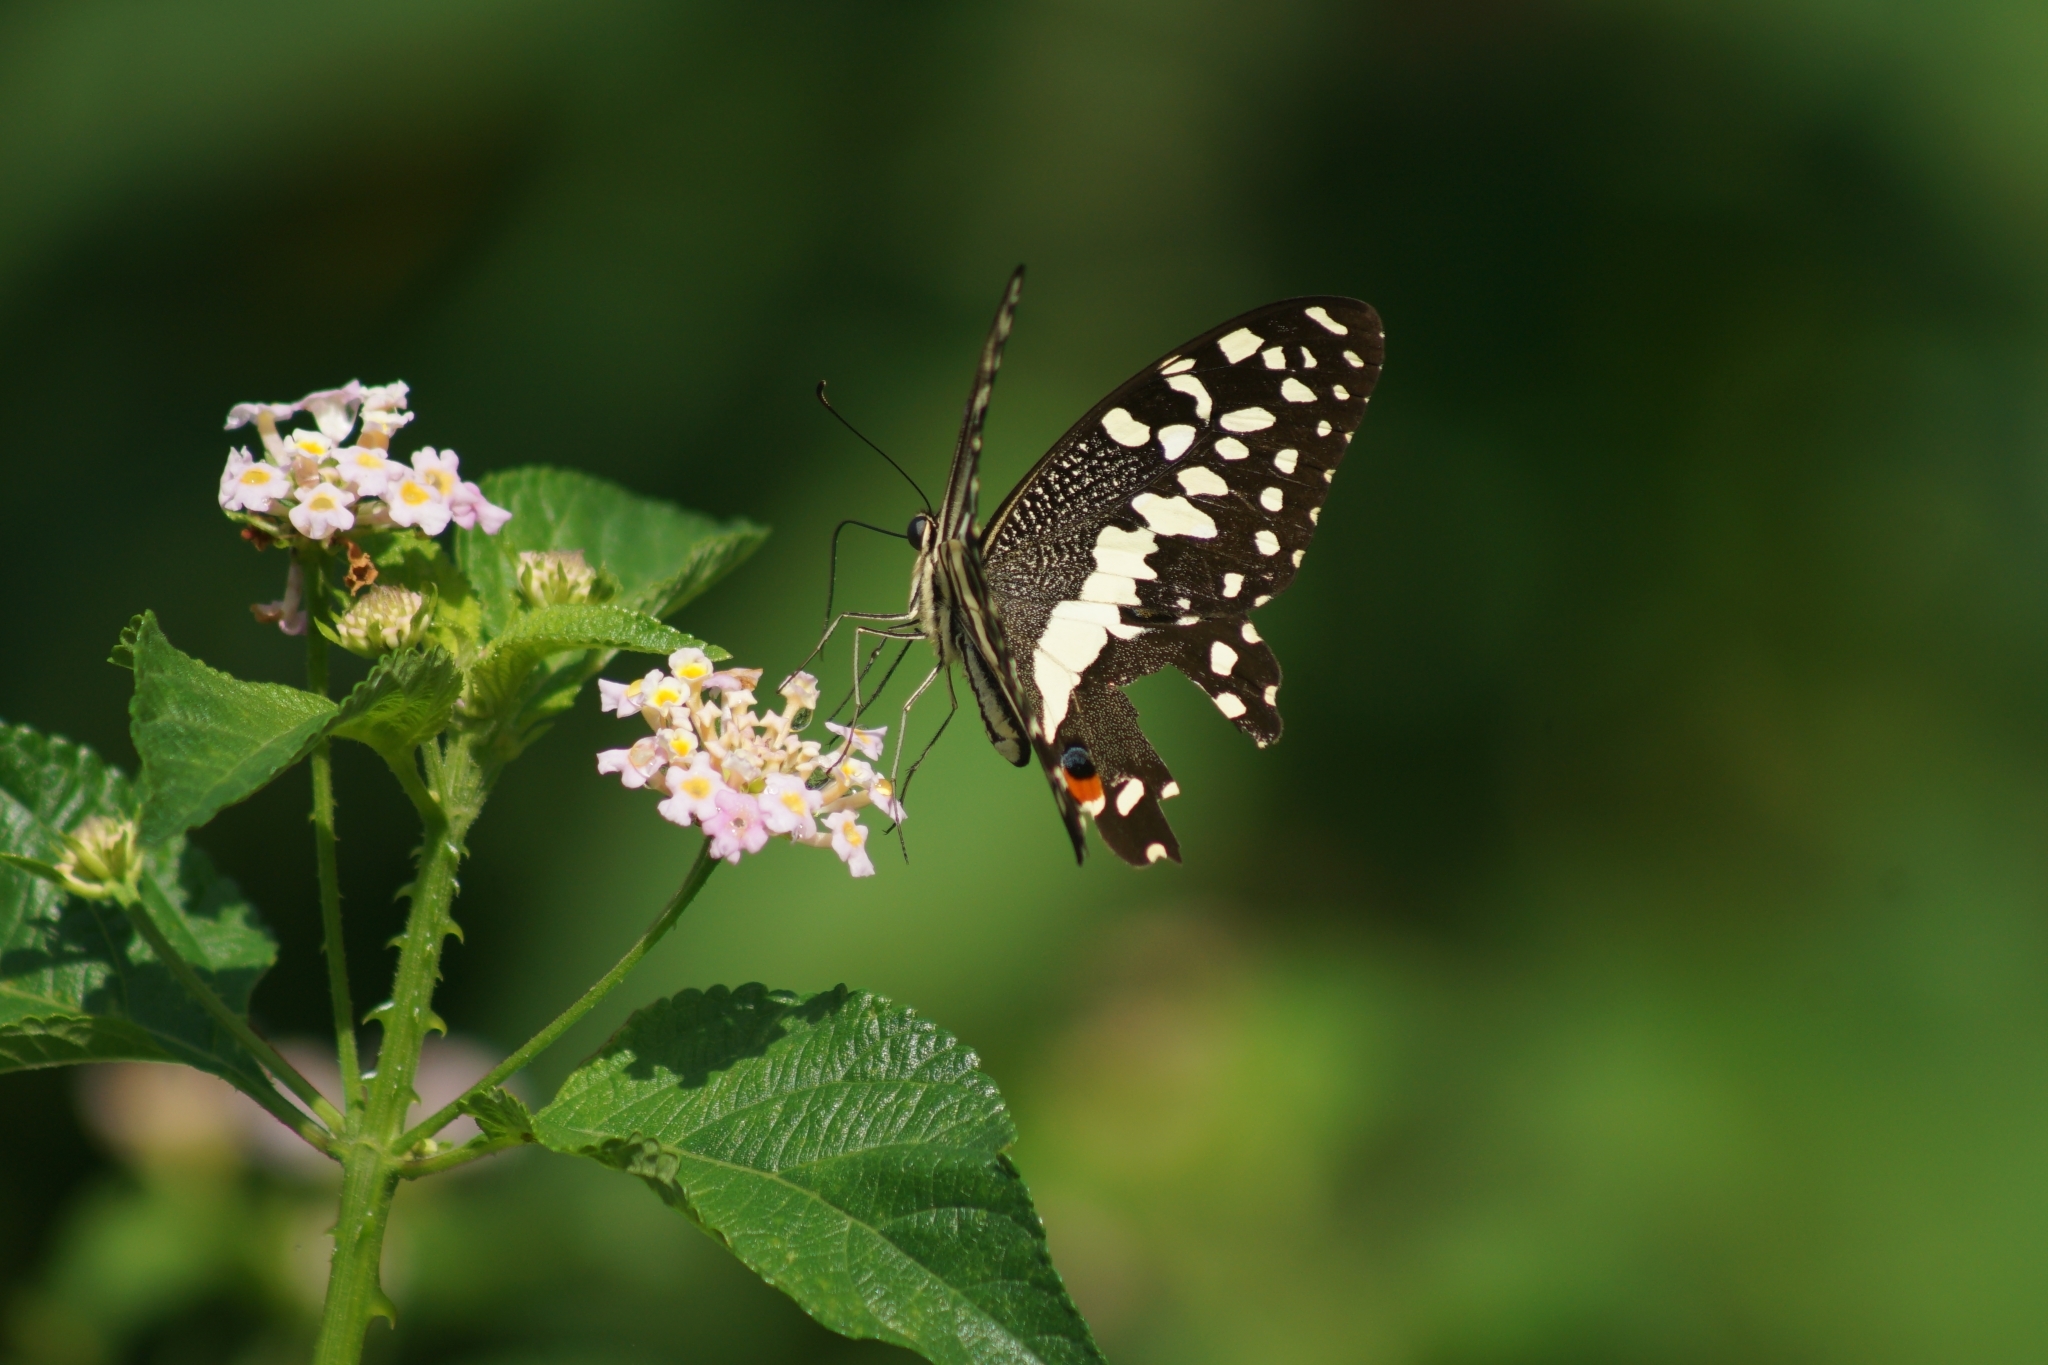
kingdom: Animalia
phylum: Arthropoda
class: Insecta
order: Lepidoptera
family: Papilionidae
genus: Papilio
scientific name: Papilio demodocus
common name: Christmas butterfly
